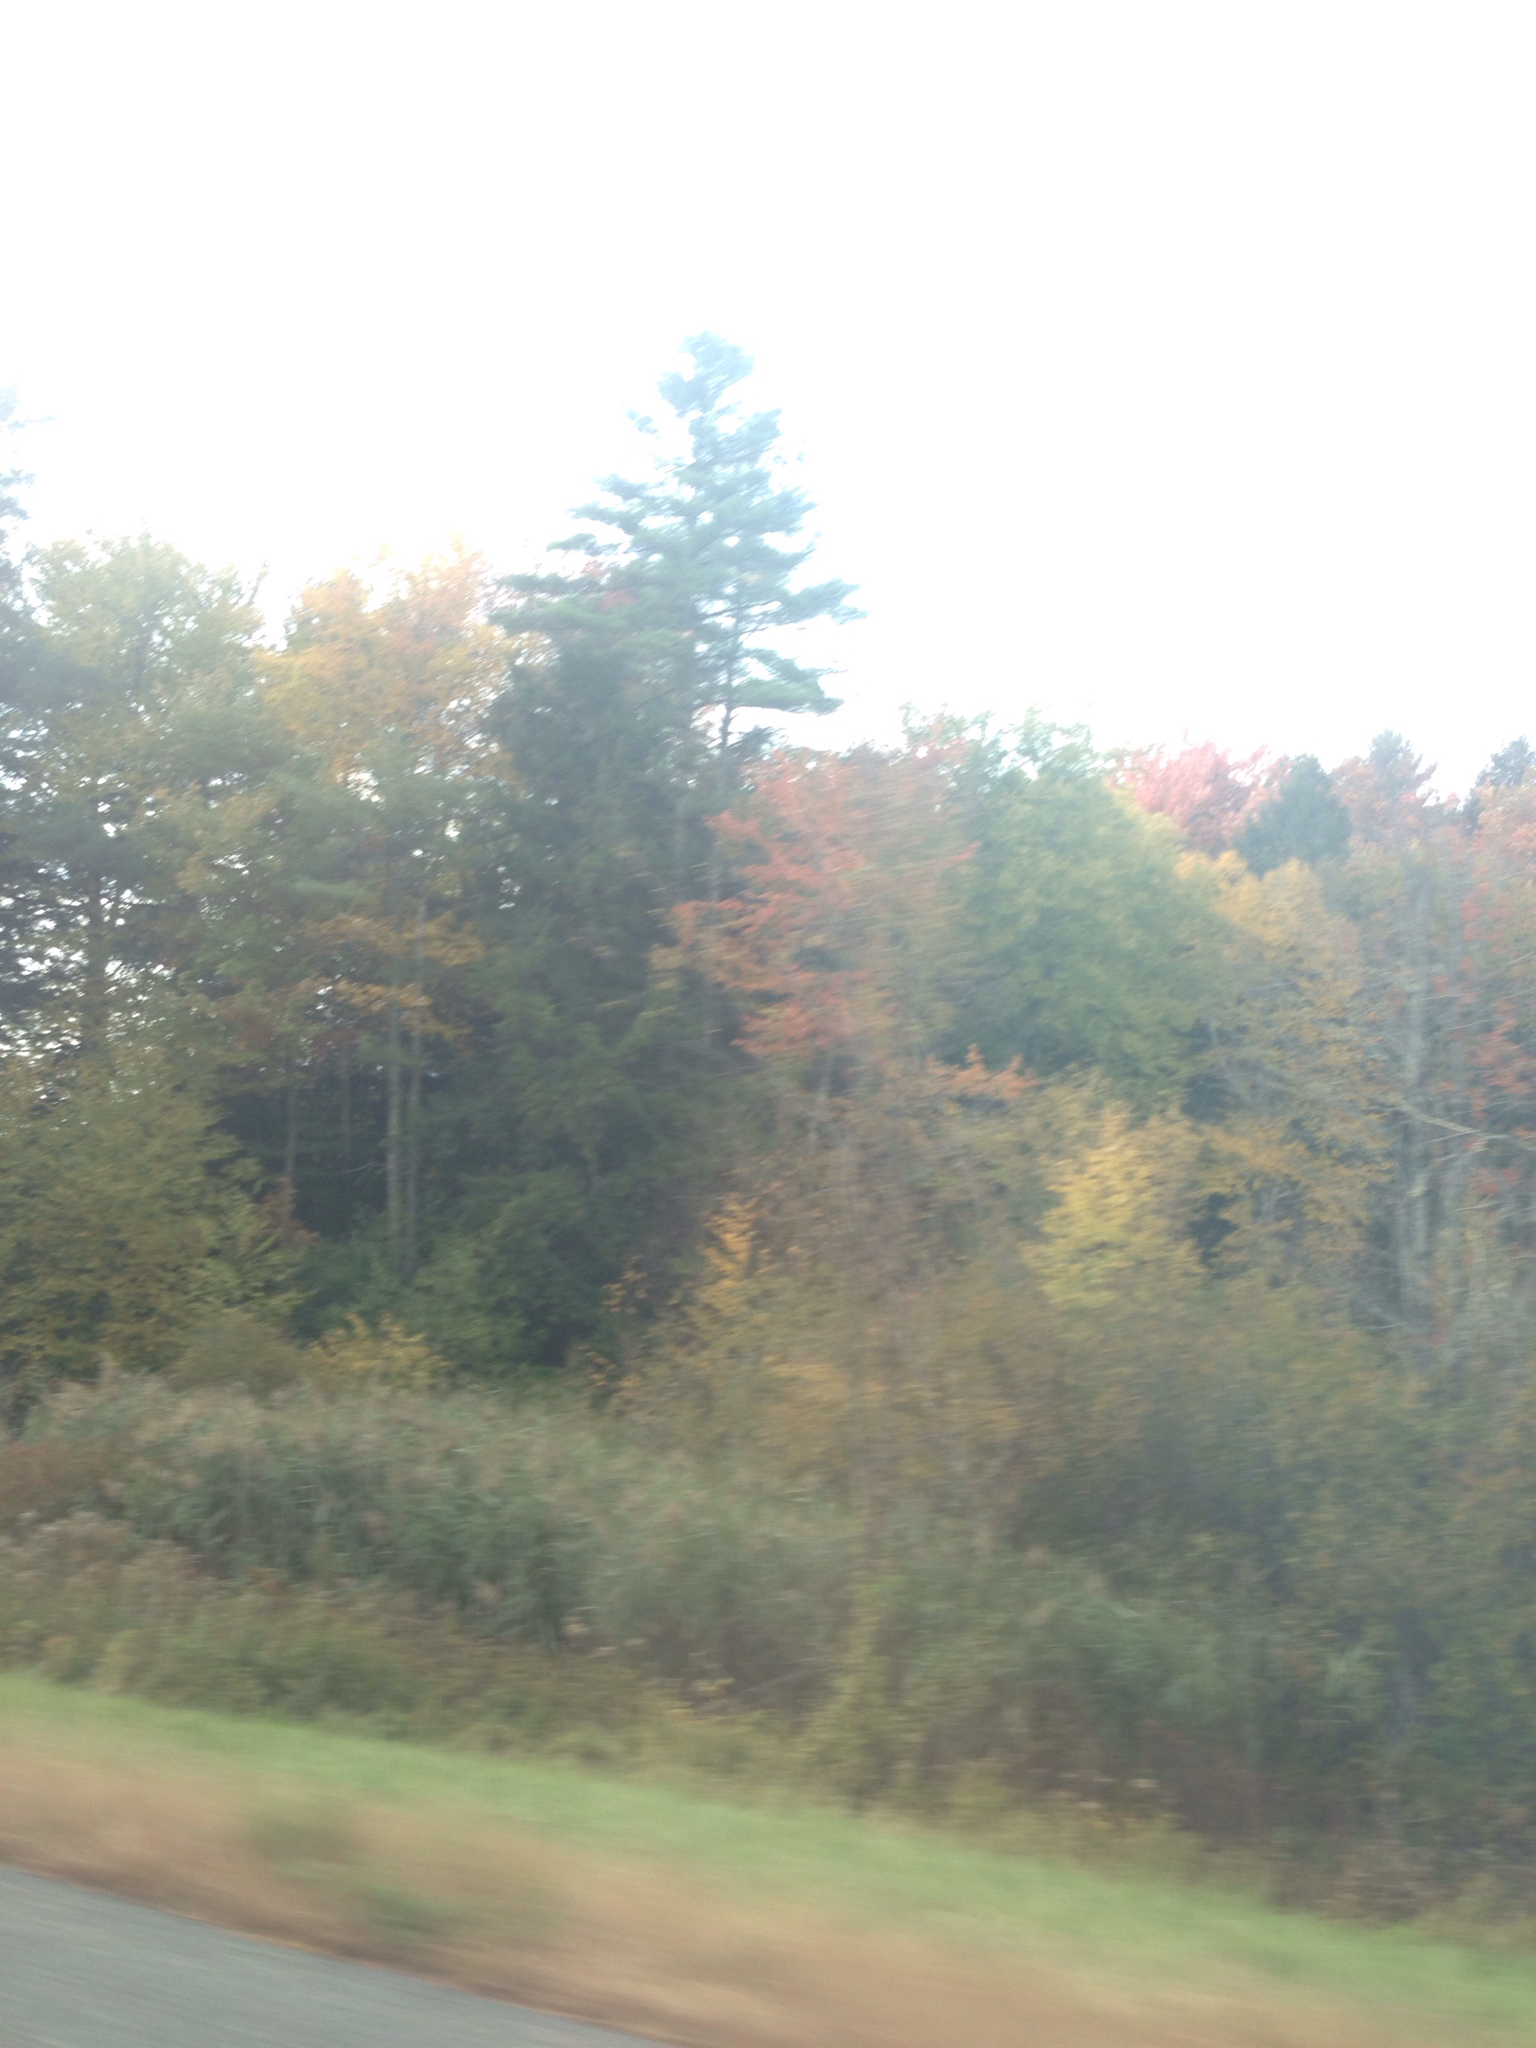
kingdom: Plantae
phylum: Tracheophyta
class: Pinopsida
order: Pinales
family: Pinaceae
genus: Pinus
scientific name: Pinus strobus
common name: Weymouth pine
